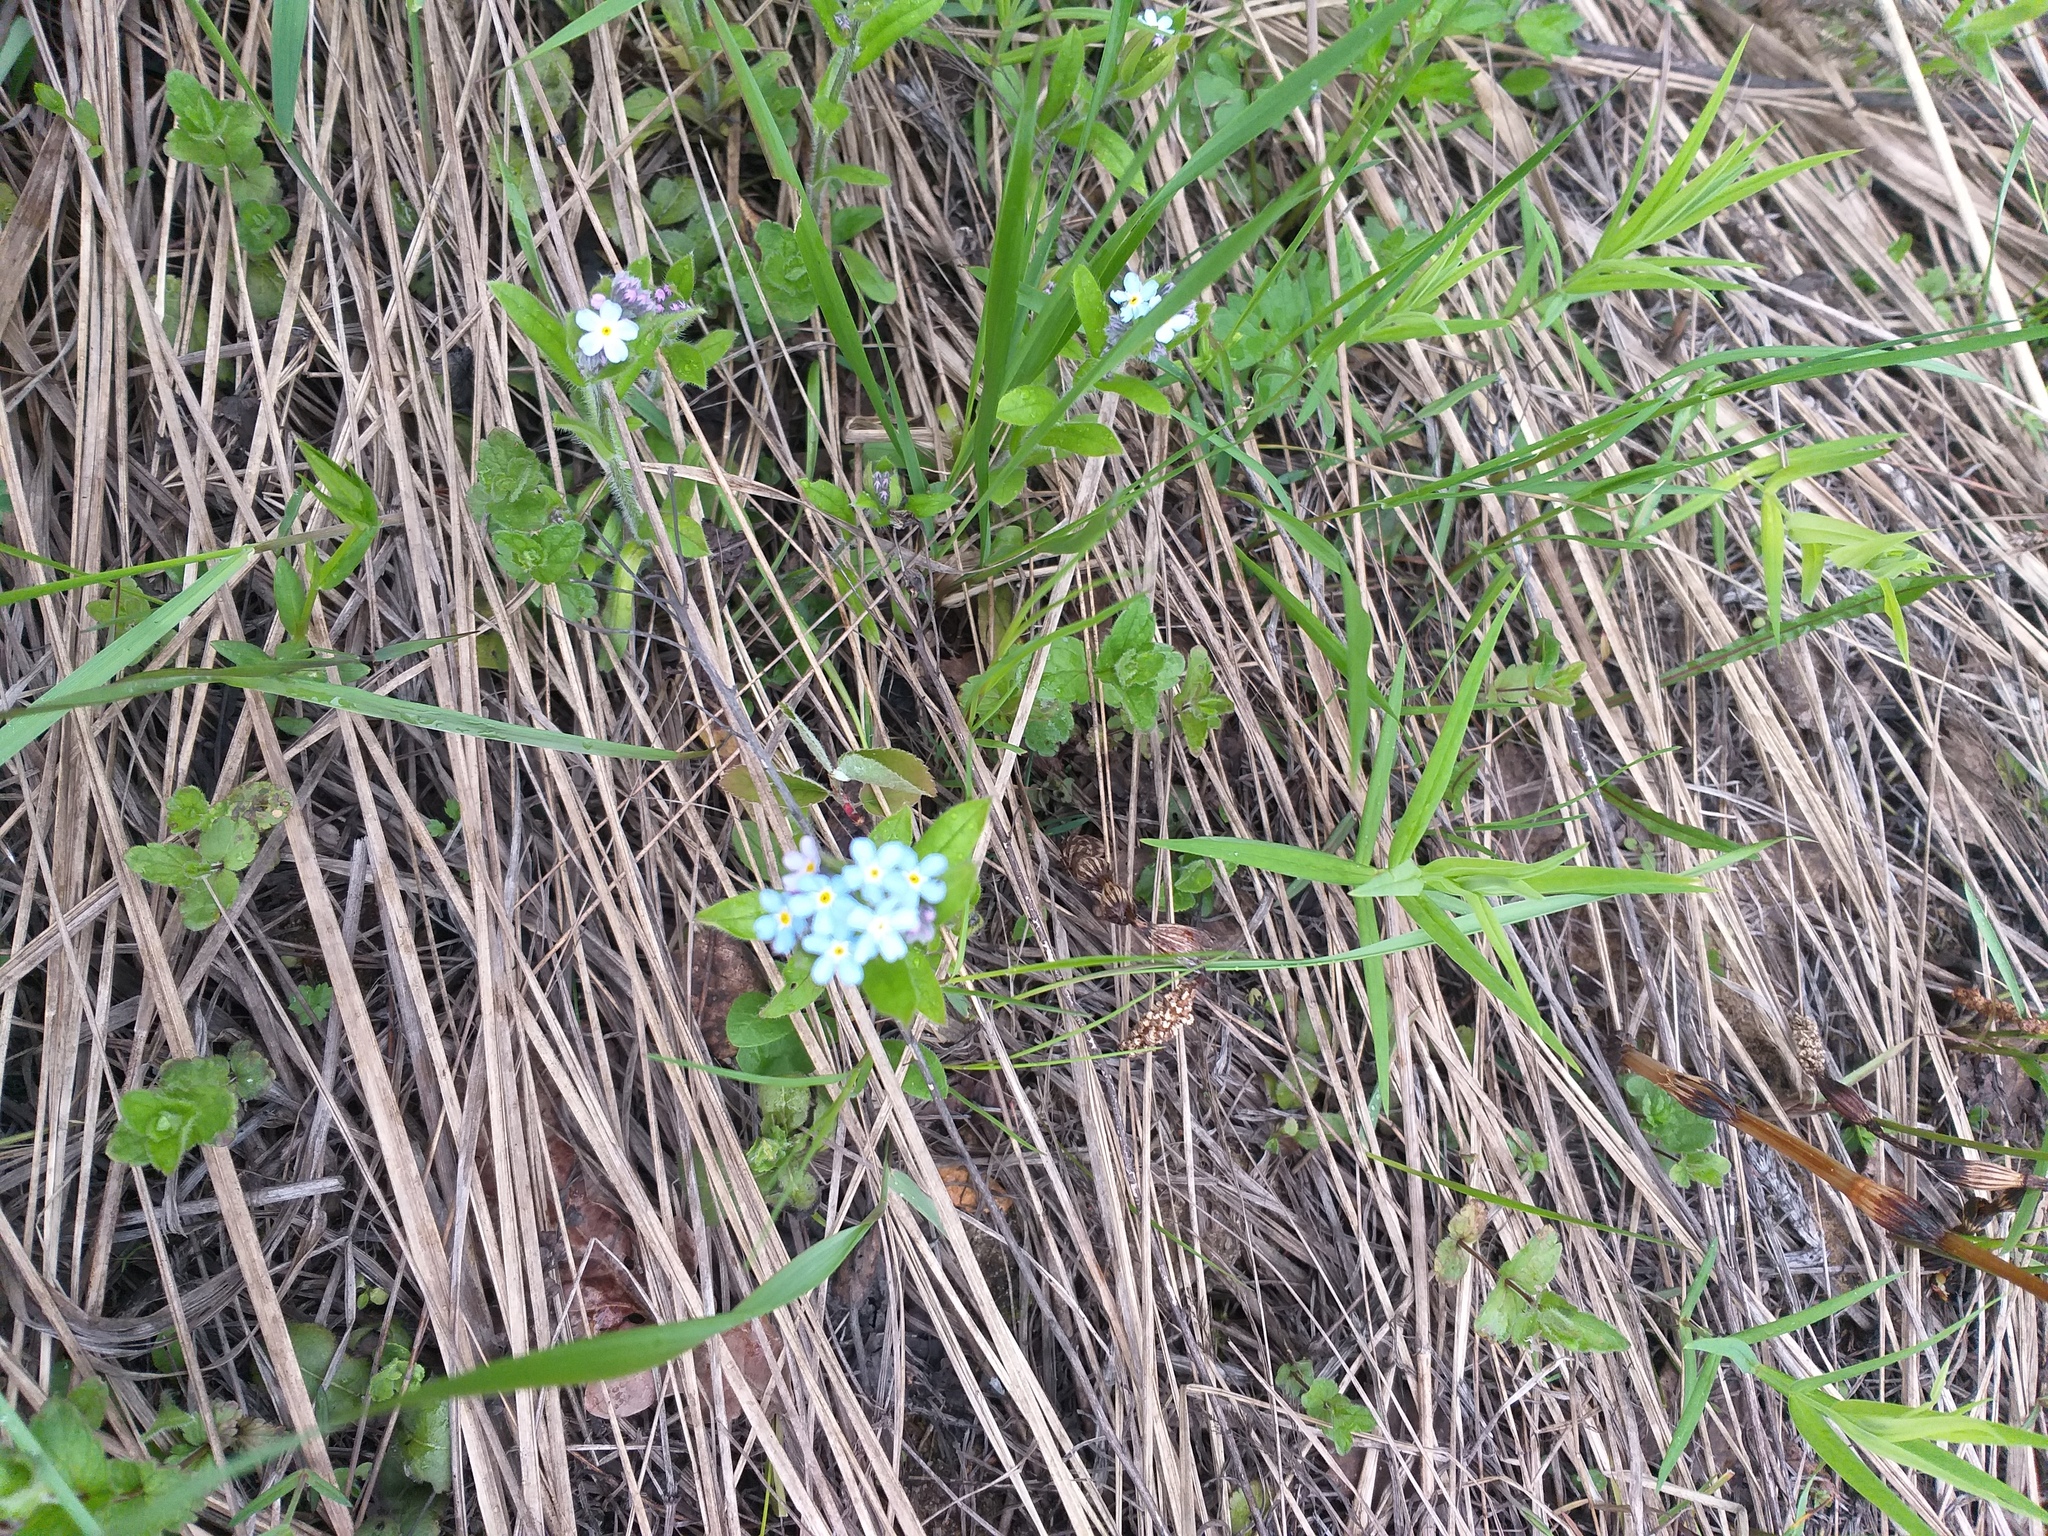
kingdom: Plantae
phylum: Tracheophyta
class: Magnoliopsida
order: Boraginales
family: Boraginaceae
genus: Myosotis
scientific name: Myosotis sylvatica
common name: Wood forget-me-not
